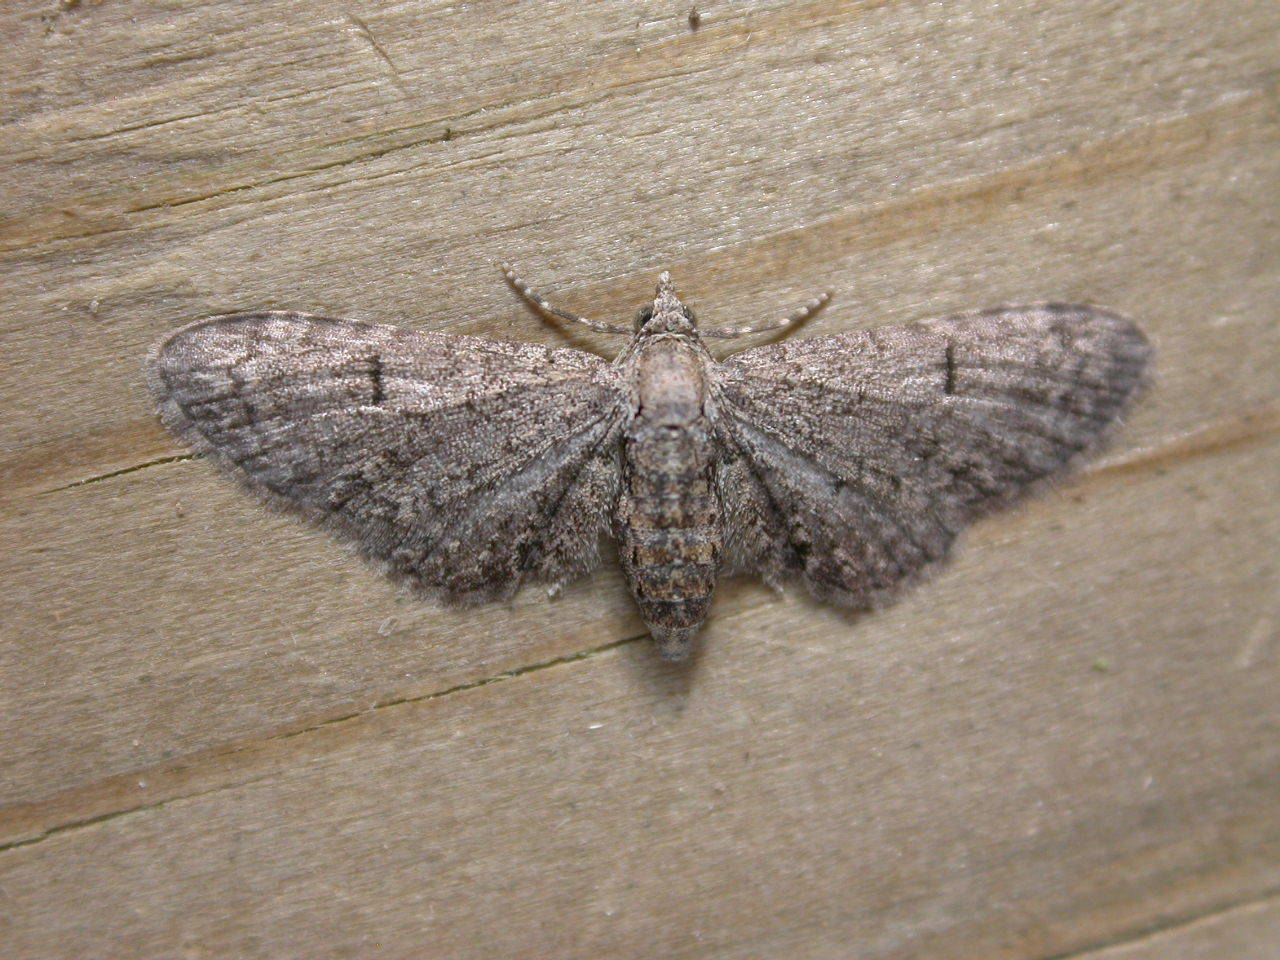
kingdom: Animalia
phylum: Arthropoda
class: Insecta
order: Lepidoptera
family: Geometridae
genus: Eupithecia
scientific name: Eupithecia ultimaria
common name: Channel islands pug
